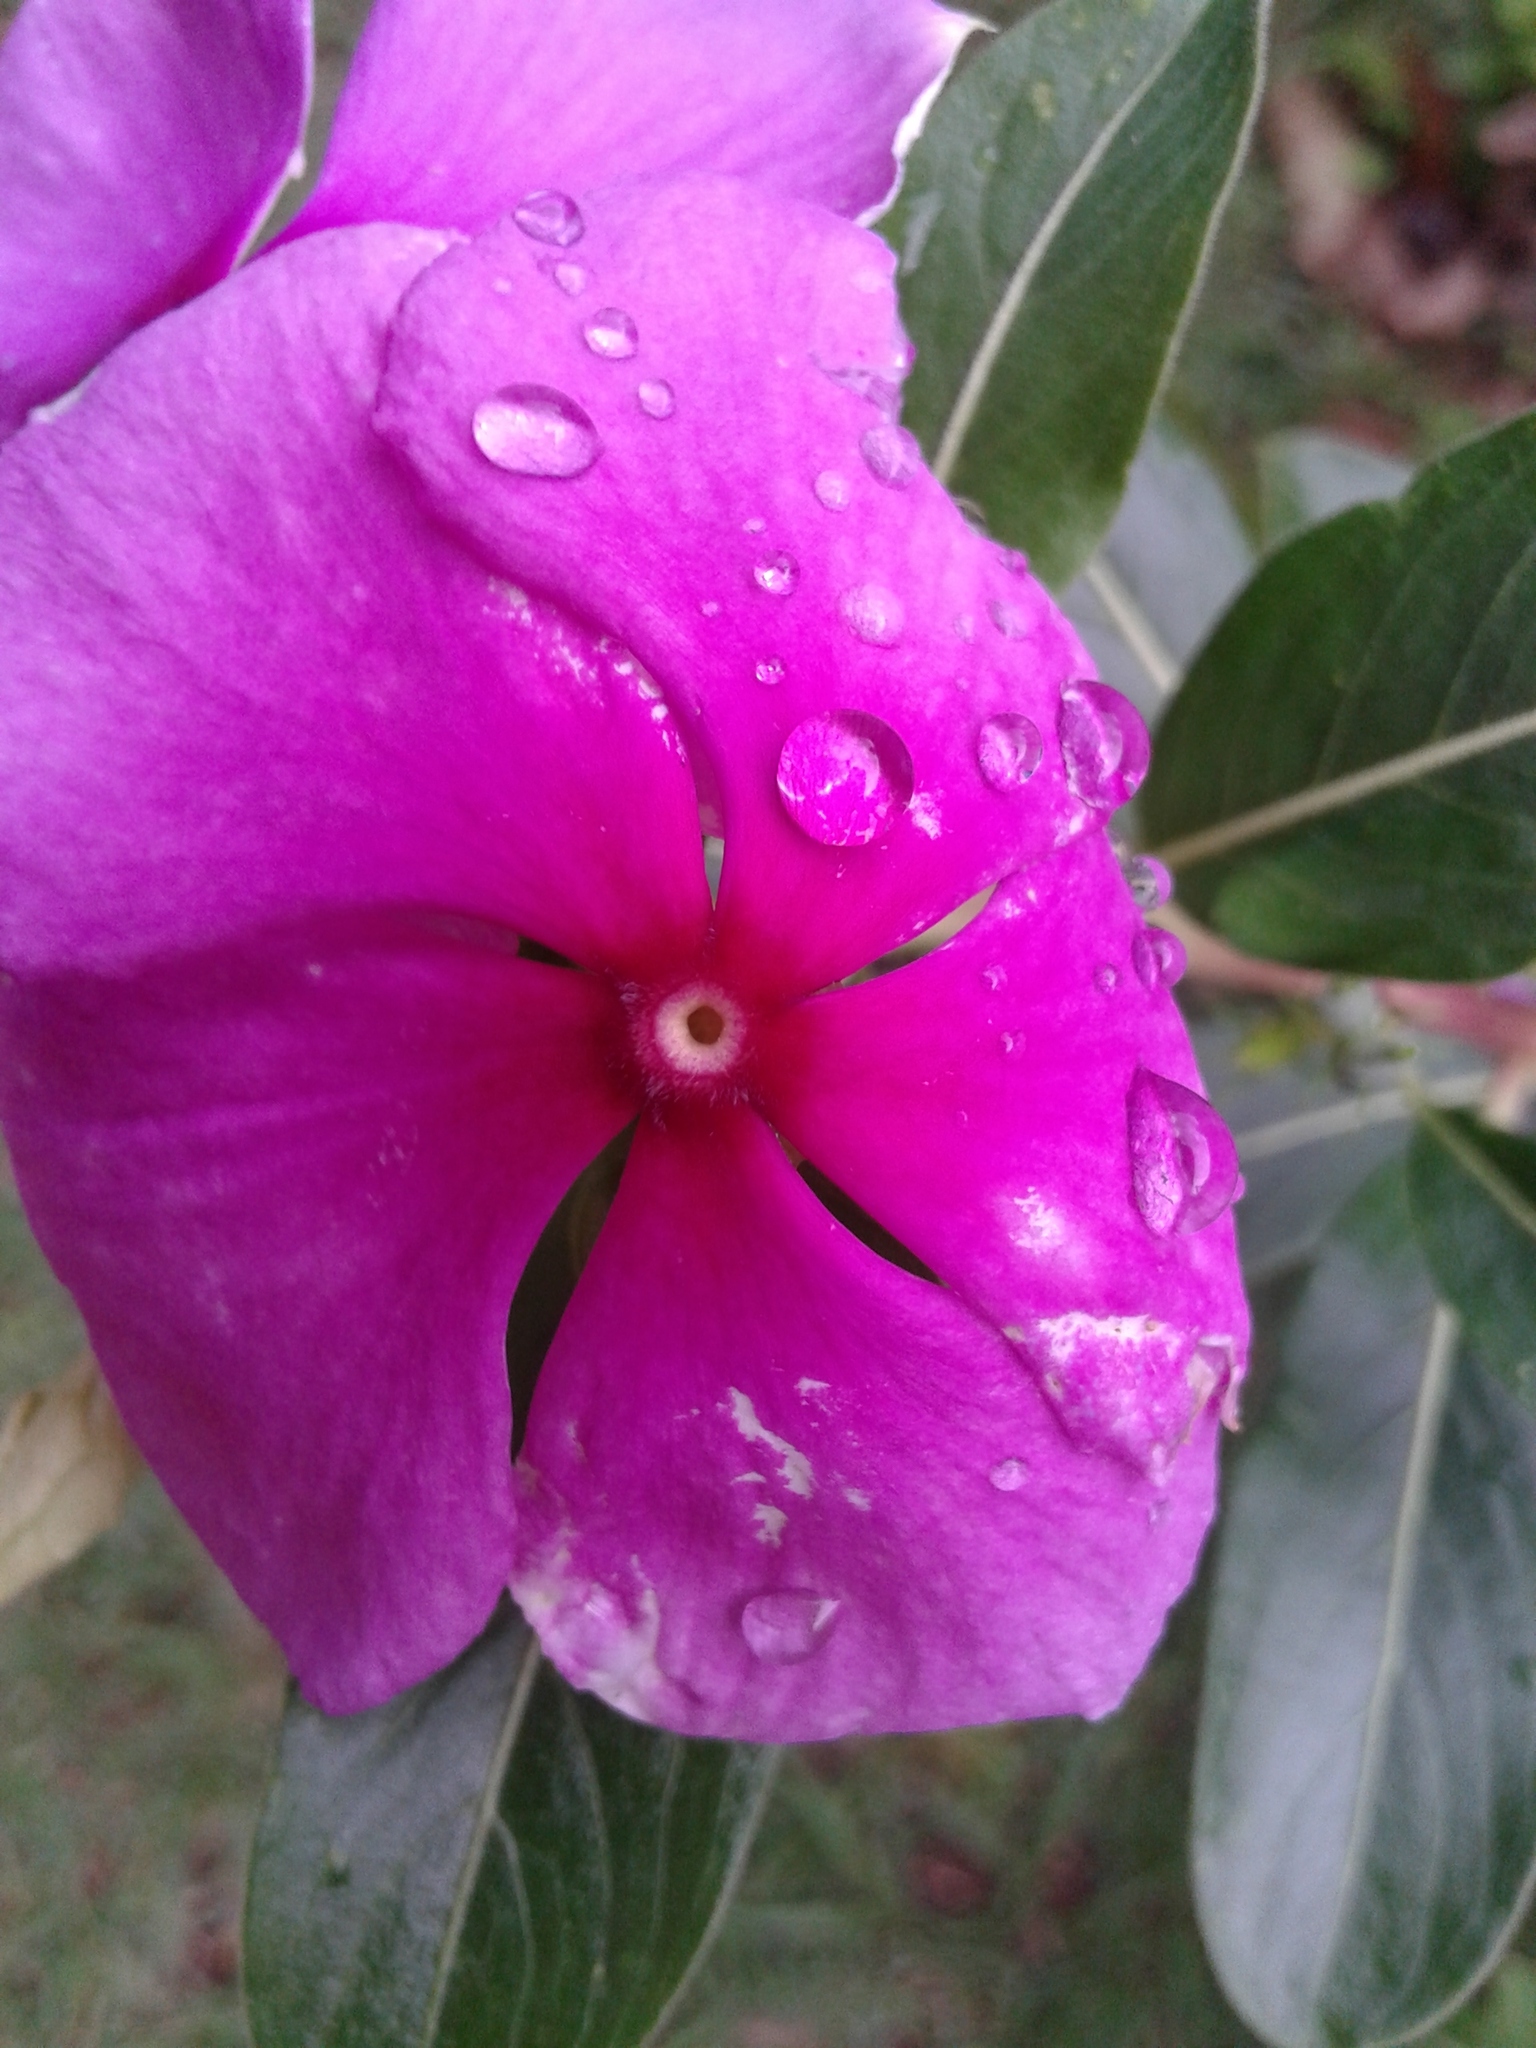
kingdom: Plantae
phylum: Tracheophyta
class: Magnoliopsida
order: Gentianales
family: Apocynaceae
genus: Catharanthus
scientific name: Catharanthus roseus
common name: Madagascar periwinkle
